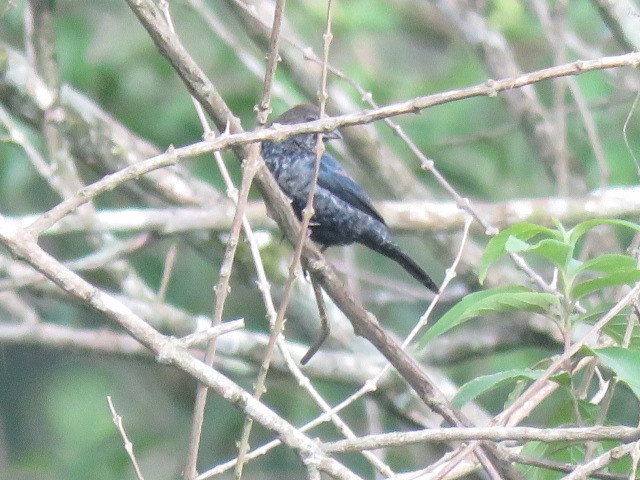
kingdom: Animalia
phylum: Chordata
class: Aves
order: Passeriformes
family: Thraupidae
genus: Volatinia
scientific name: Volatinia jacarina
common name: Blue-black grassquit
